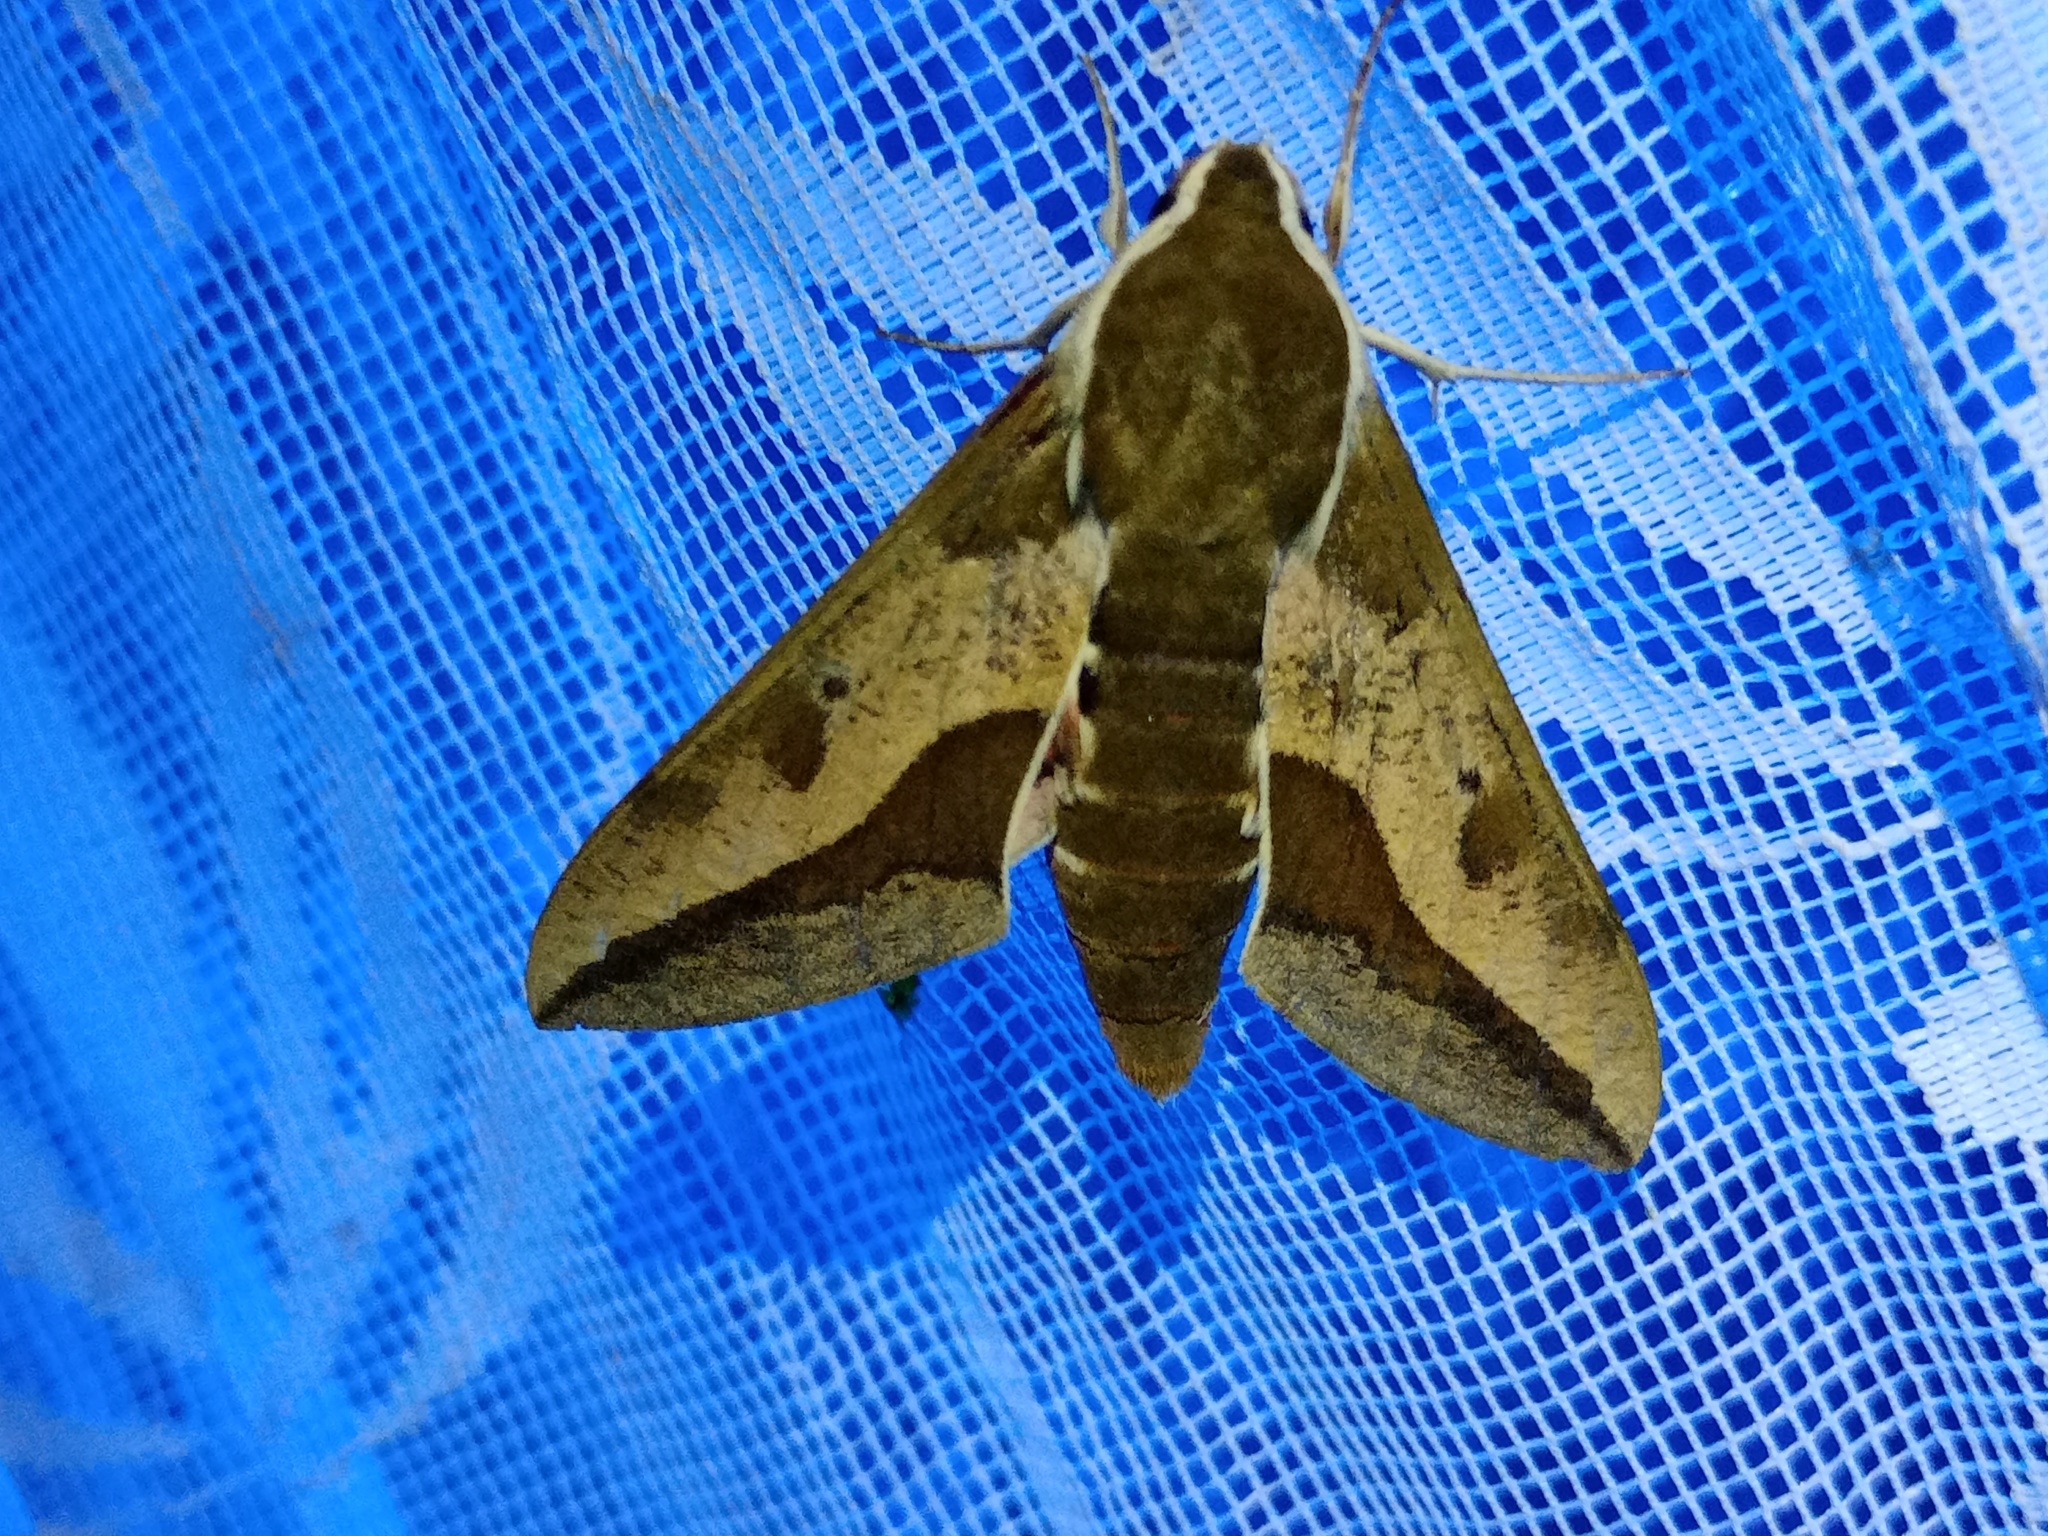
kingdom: Animalia
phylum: Arthropoda
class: Insecta
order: Lepidoptera
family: Sphingidae
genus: Hyles
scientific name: Hyles euphorbiae
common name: Spurge hawk-moth
